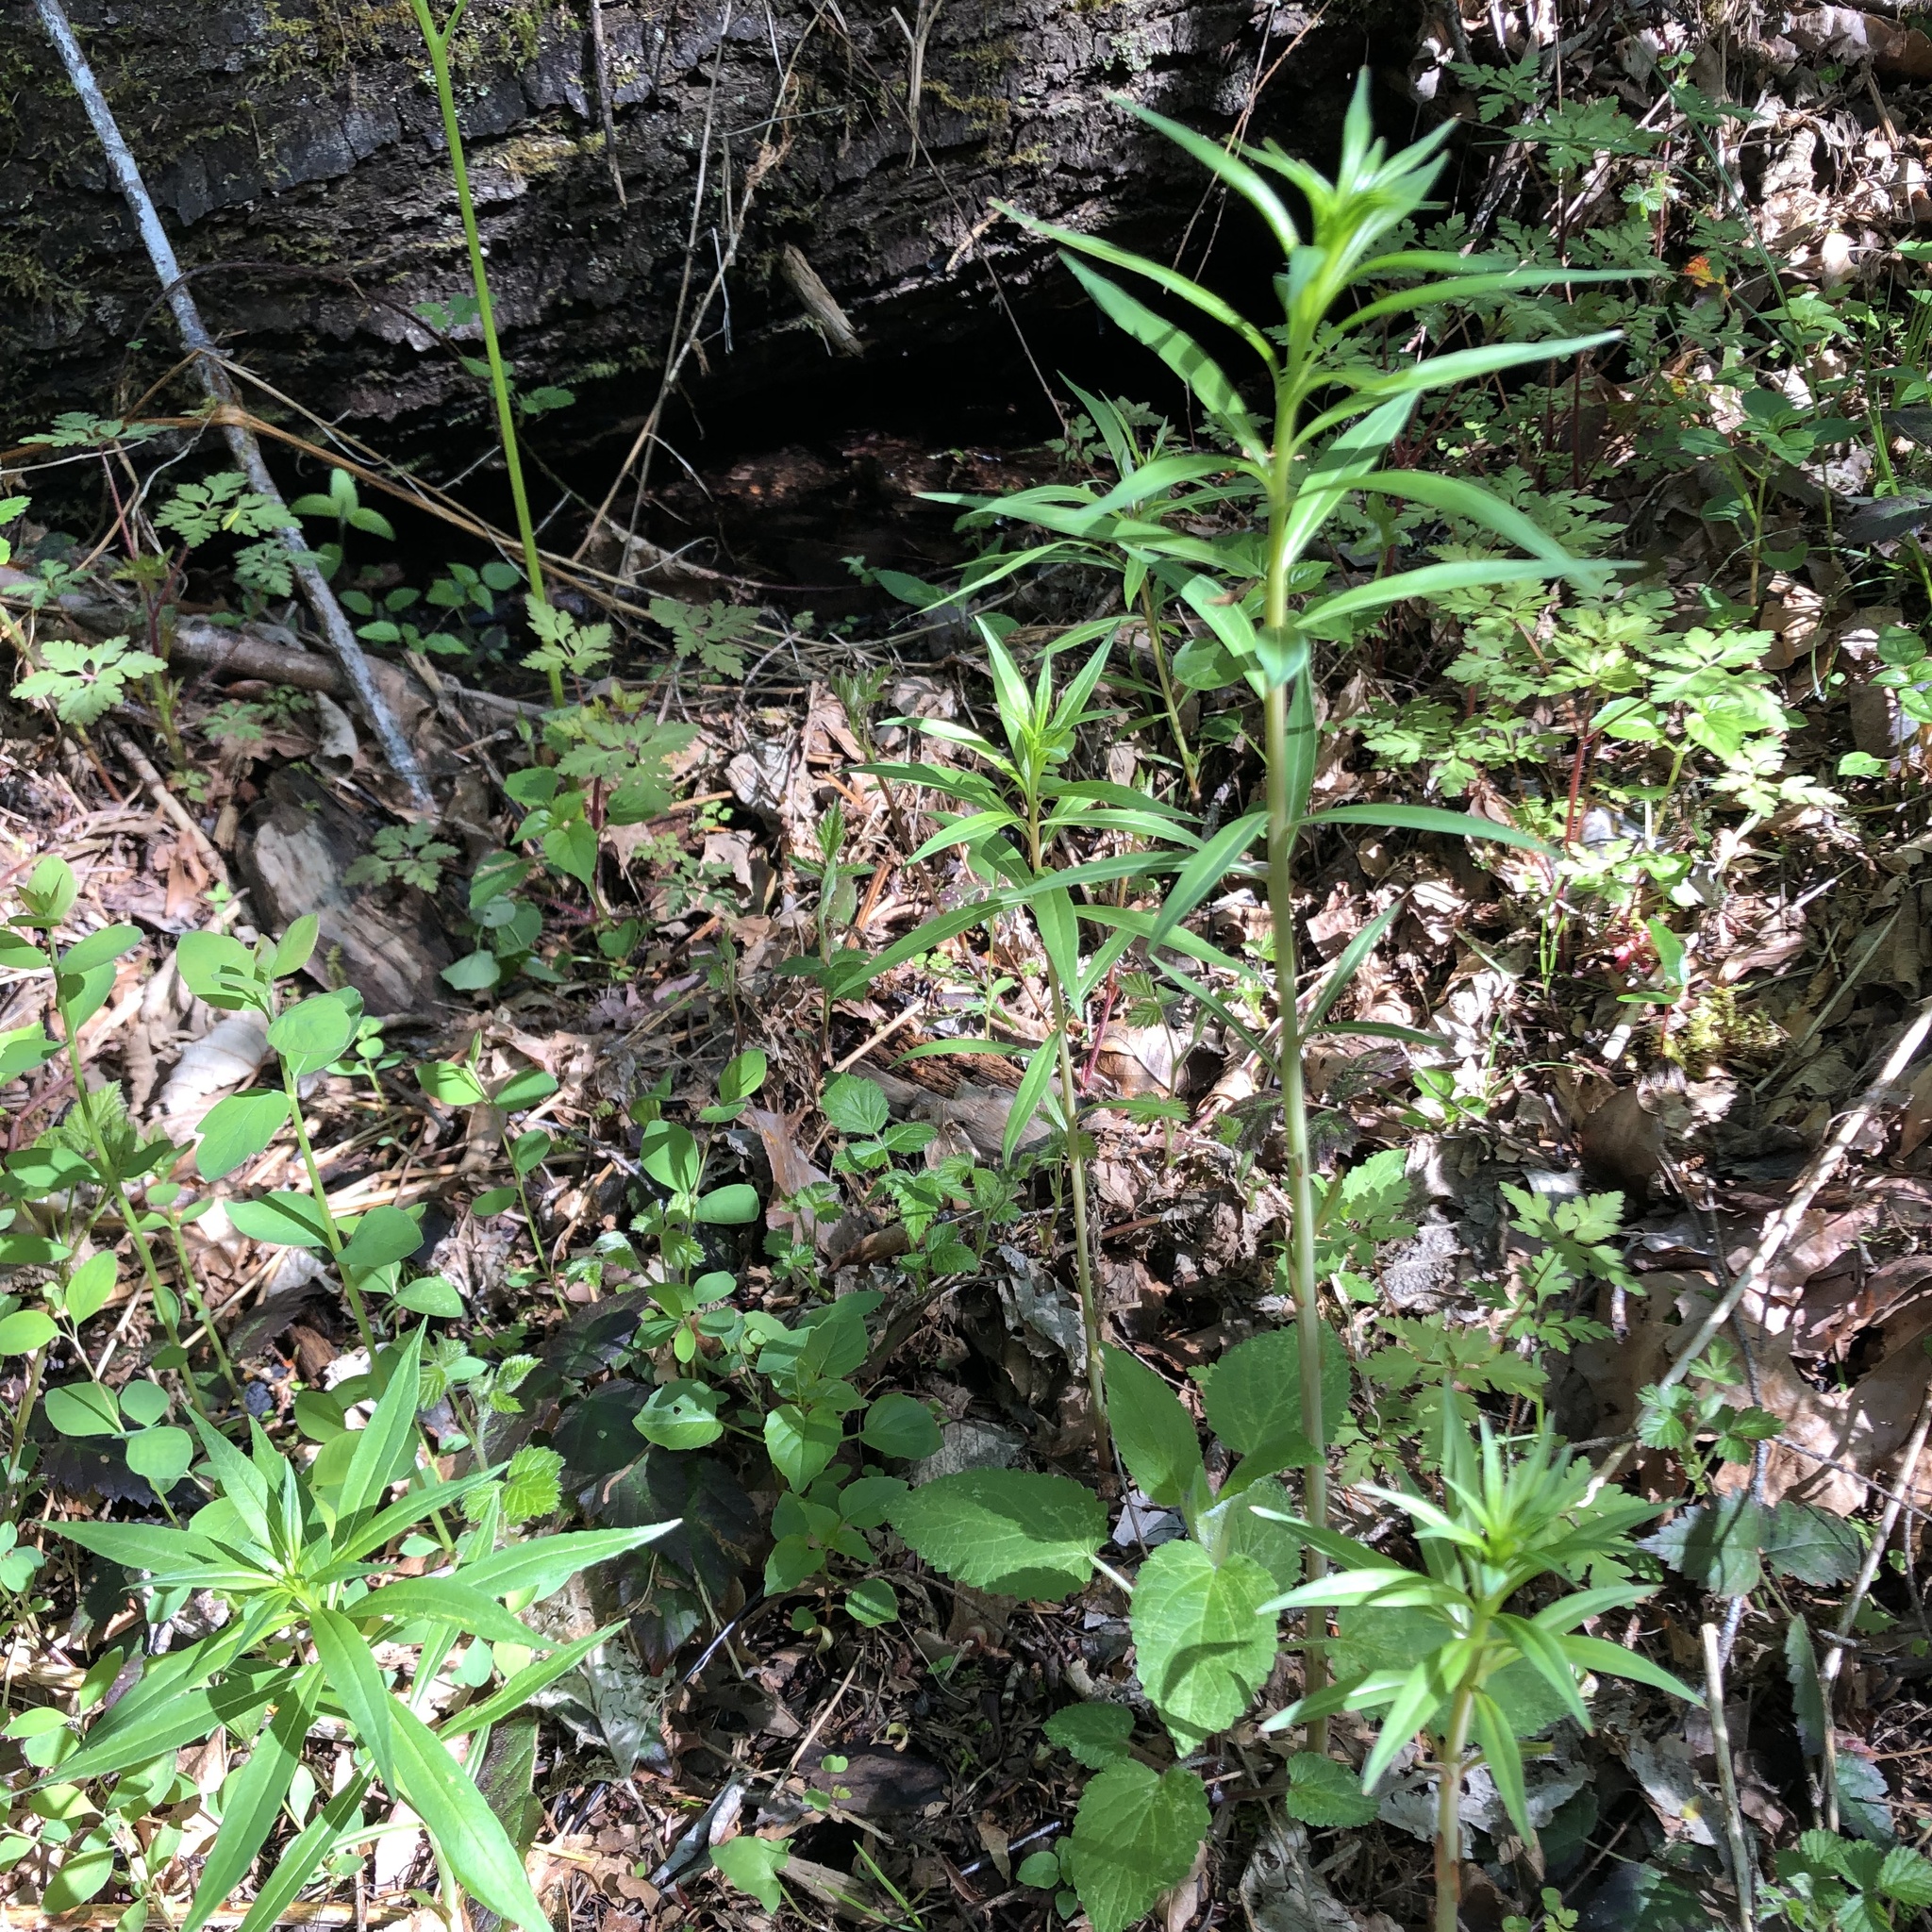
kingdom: Plantae
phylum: Tracheophyta
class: Magnoliopsida
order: Myrtales
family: Onagraceae
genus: Chamaenerion
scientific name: Chamaenerion angustifolium
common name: Fireweed
